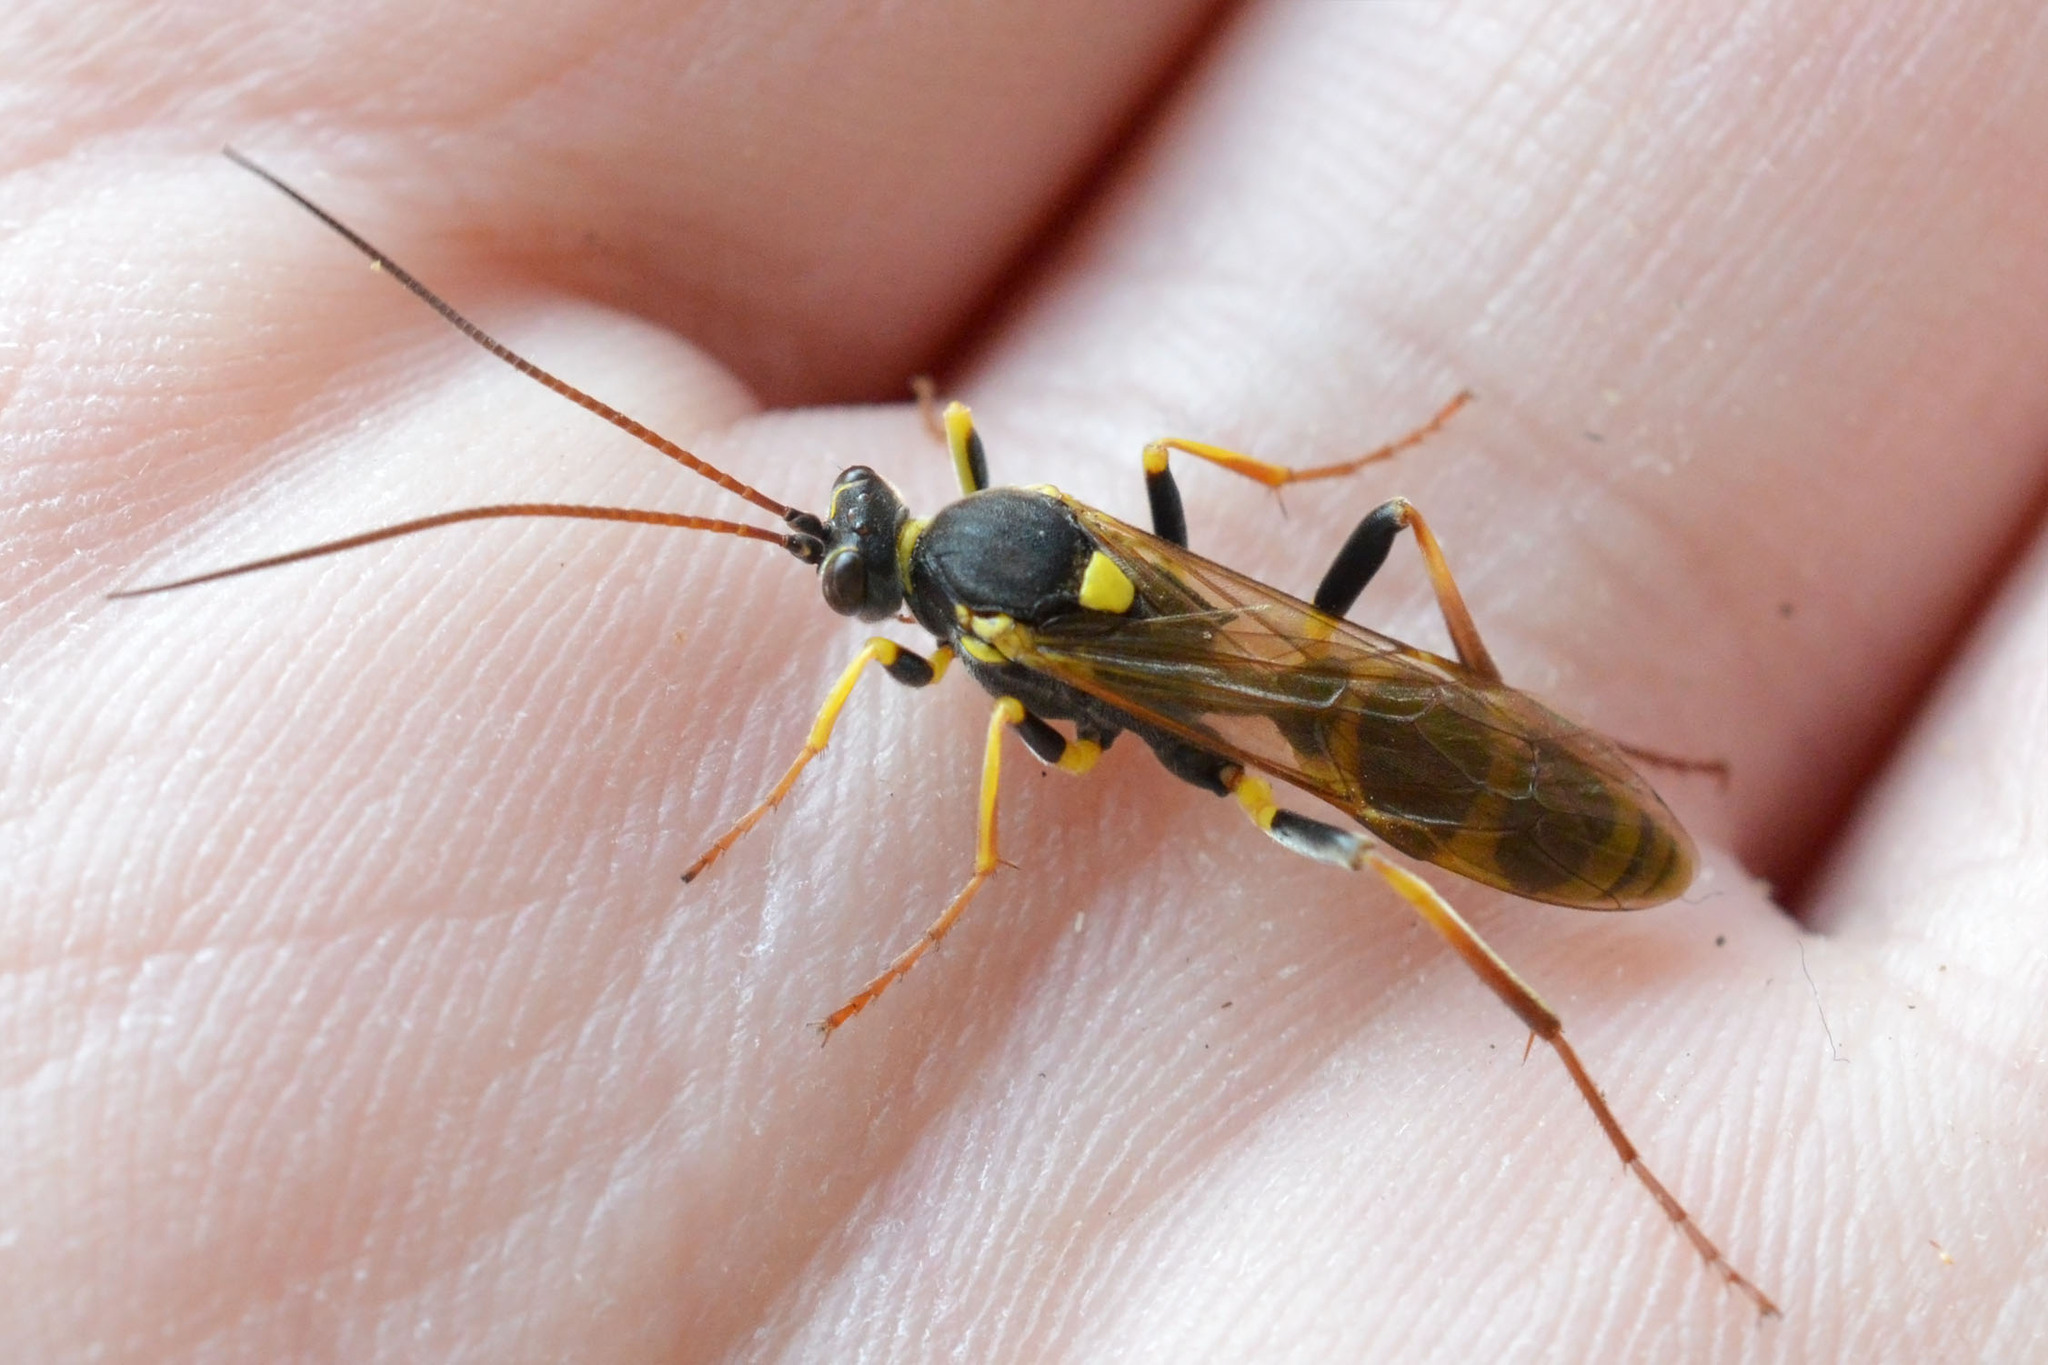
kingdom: Animalia
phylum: Arthropoda
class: Insecta
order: Hymenoptera
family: Ichneumonidae
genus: Amblyteles
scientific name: Amblyteles armatorius
